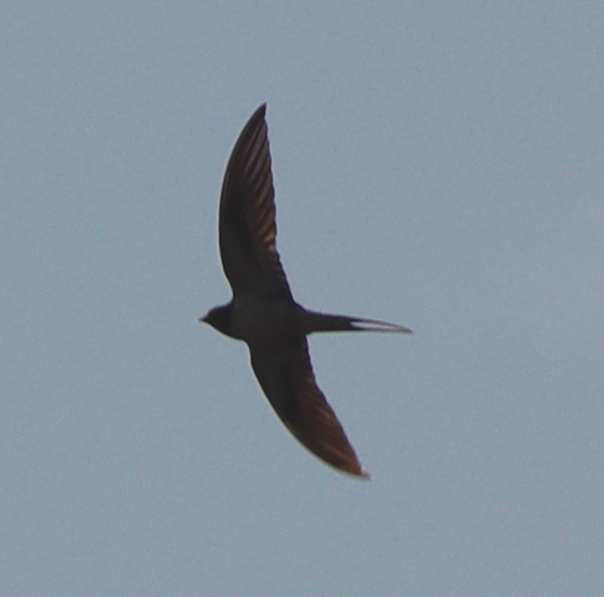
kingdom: Animalia
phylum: Chordata
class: Aves
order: Passeriformes
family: Hirundinidae
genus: Hirundo
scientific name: Hirundo rustica
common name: Barn swallow
